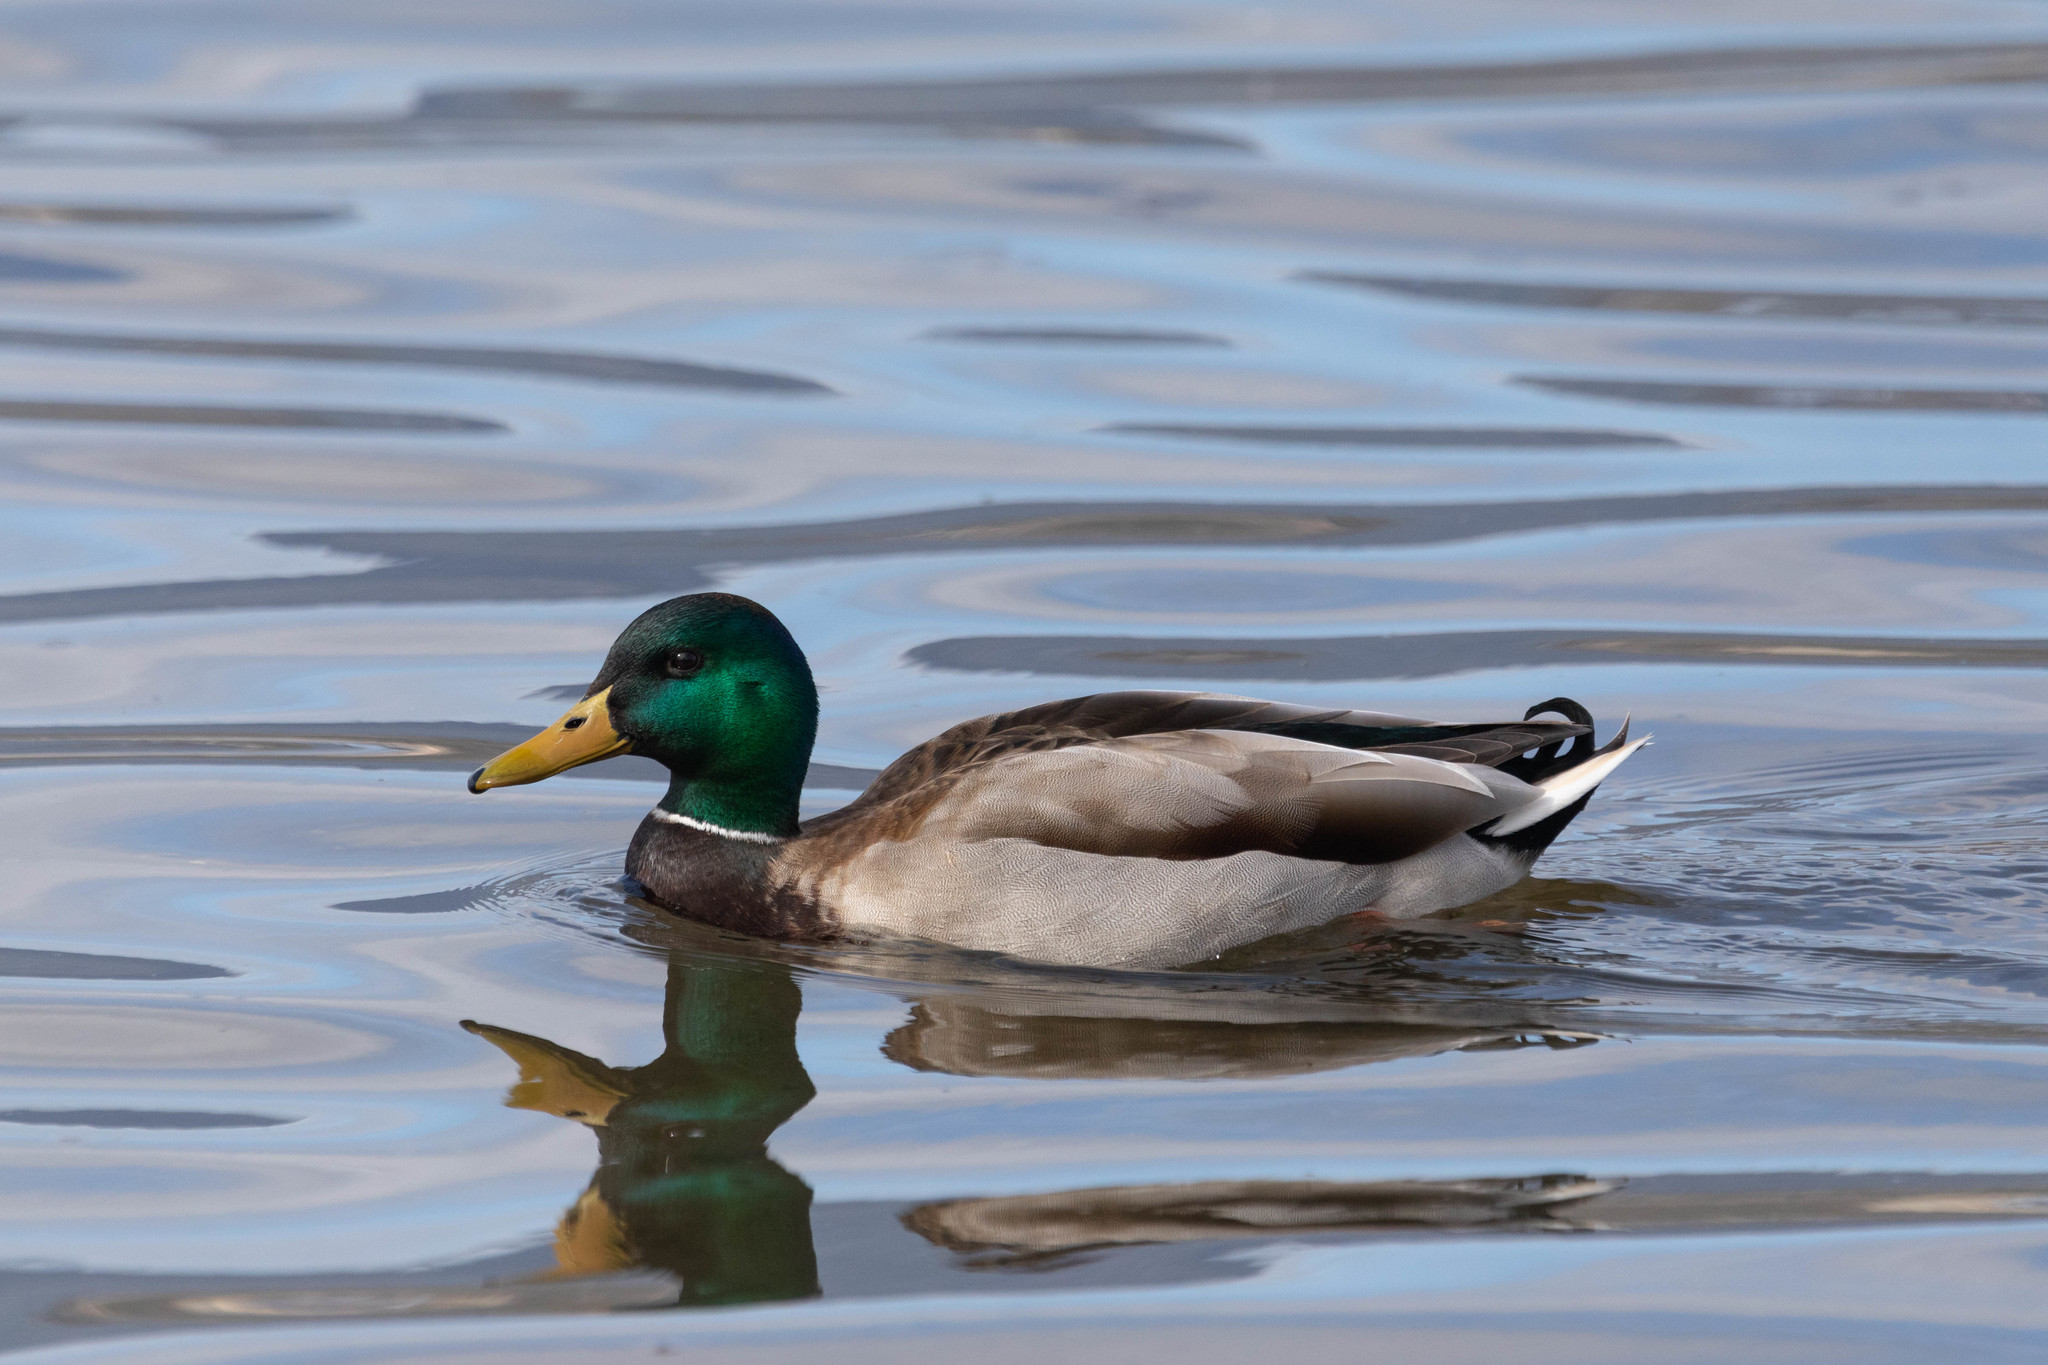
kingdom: Animalia
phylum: Chordata
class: Aves
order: Anseriformes
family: Anatidae
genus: Anas
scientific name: Anas platyrhynchos
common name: Mallard
